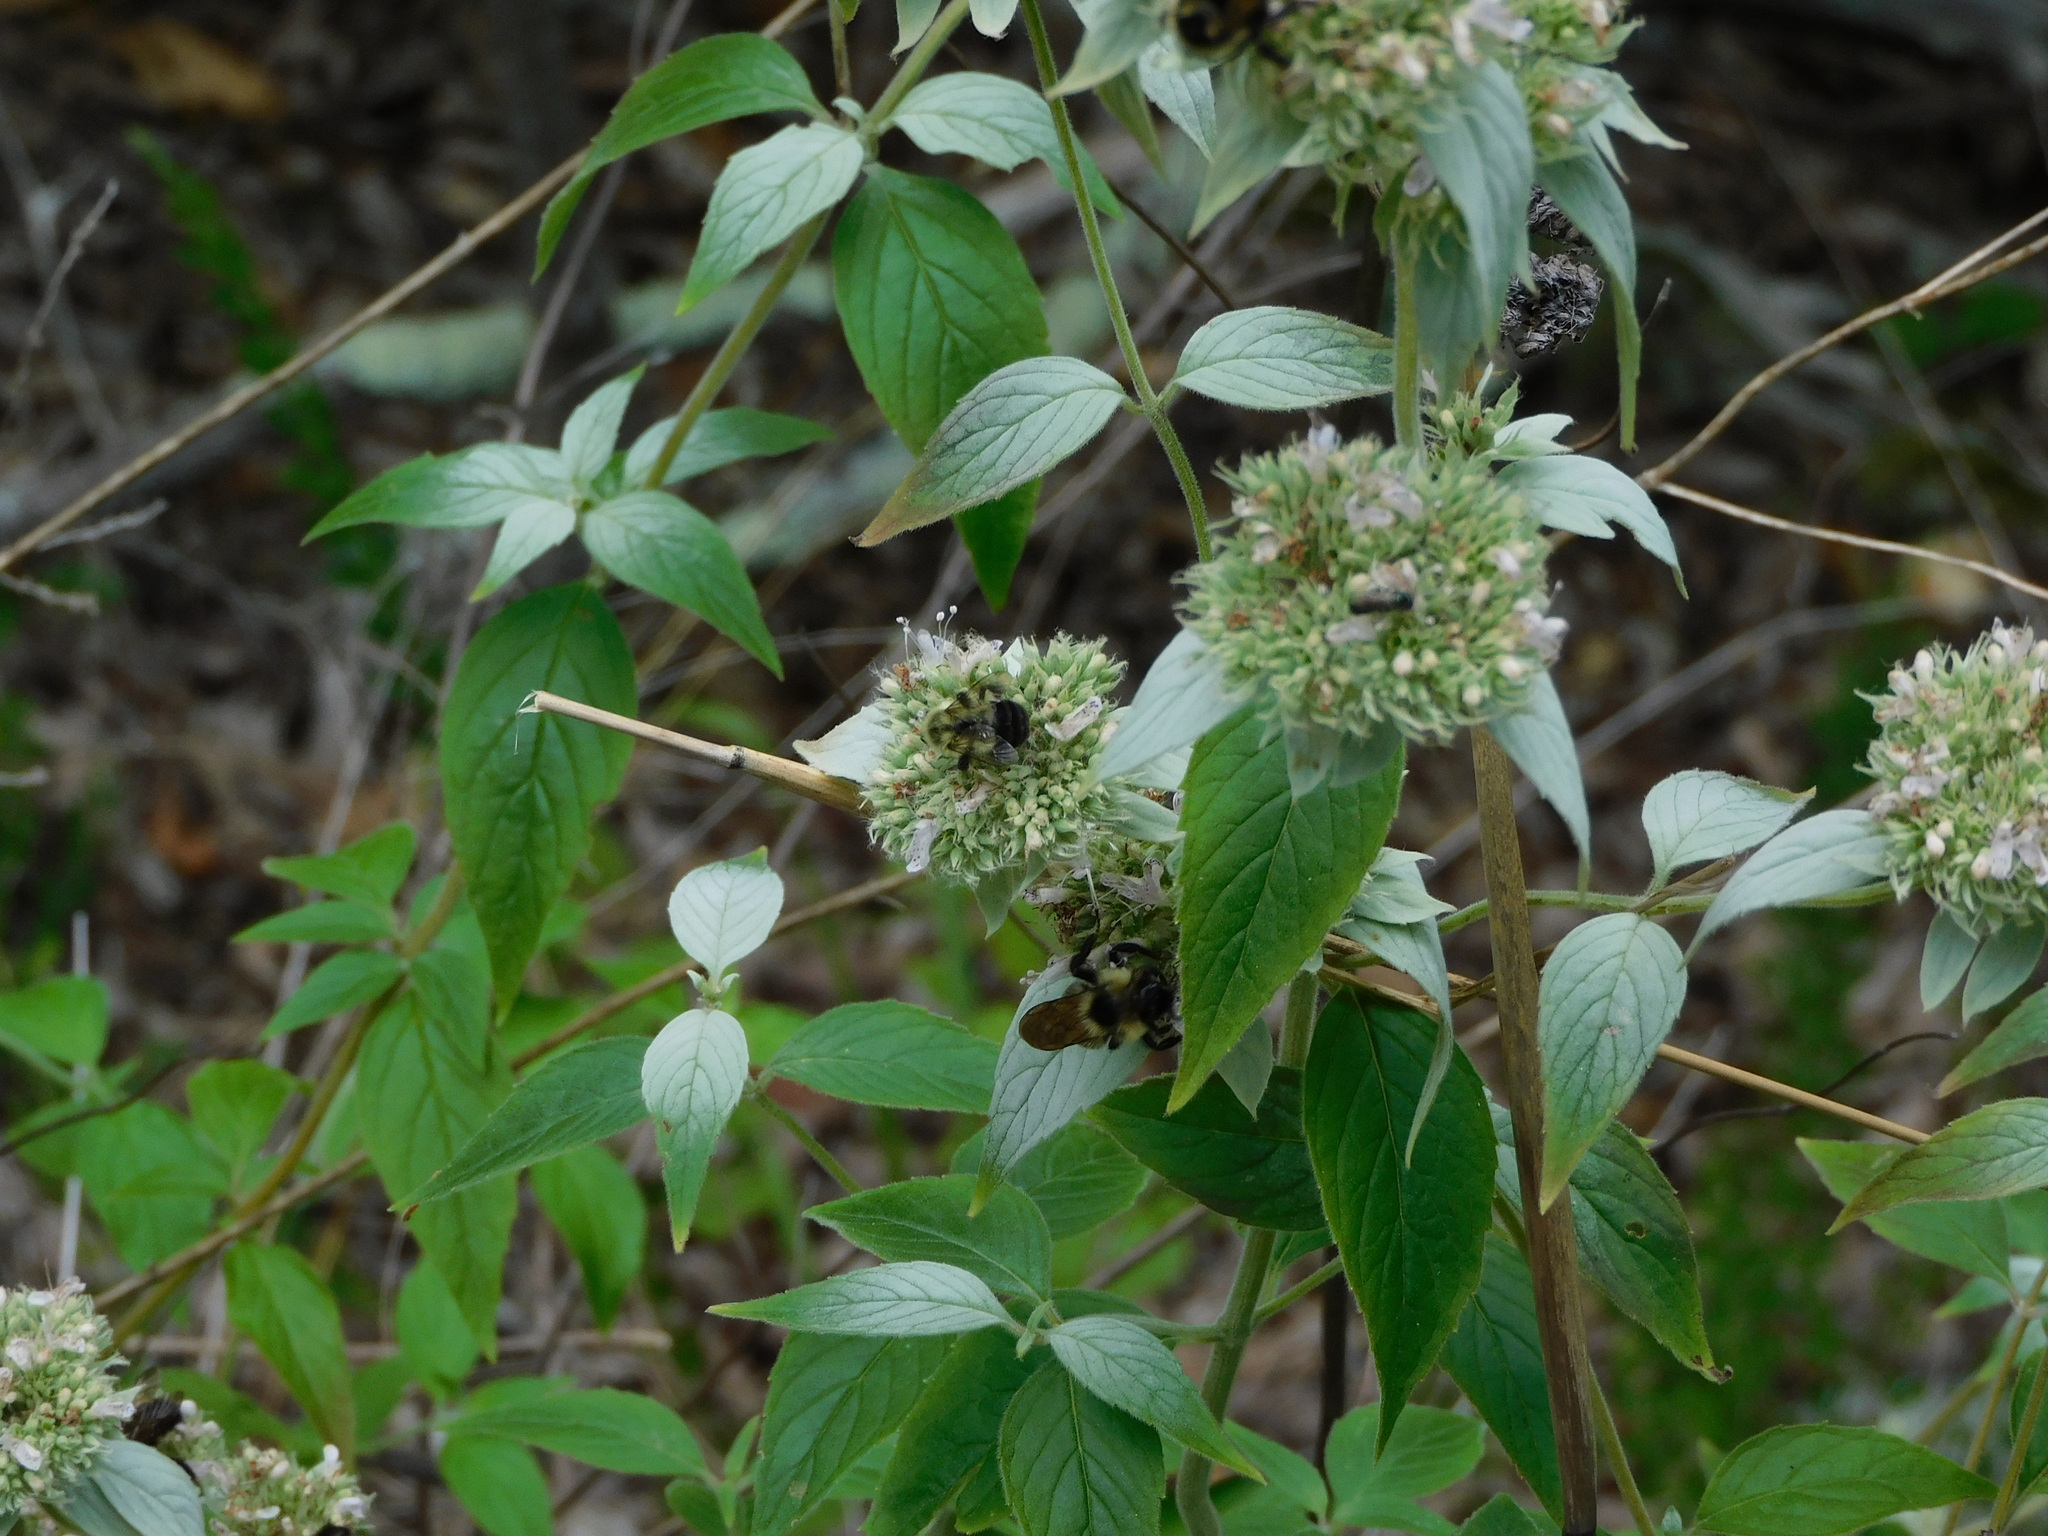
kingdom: Animalia
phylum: Arthropoda
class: Insecta
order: Hymenoptera
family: Apidae
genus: Bombus
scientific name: Bombus impatiens
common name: Common eastern bumble bee
